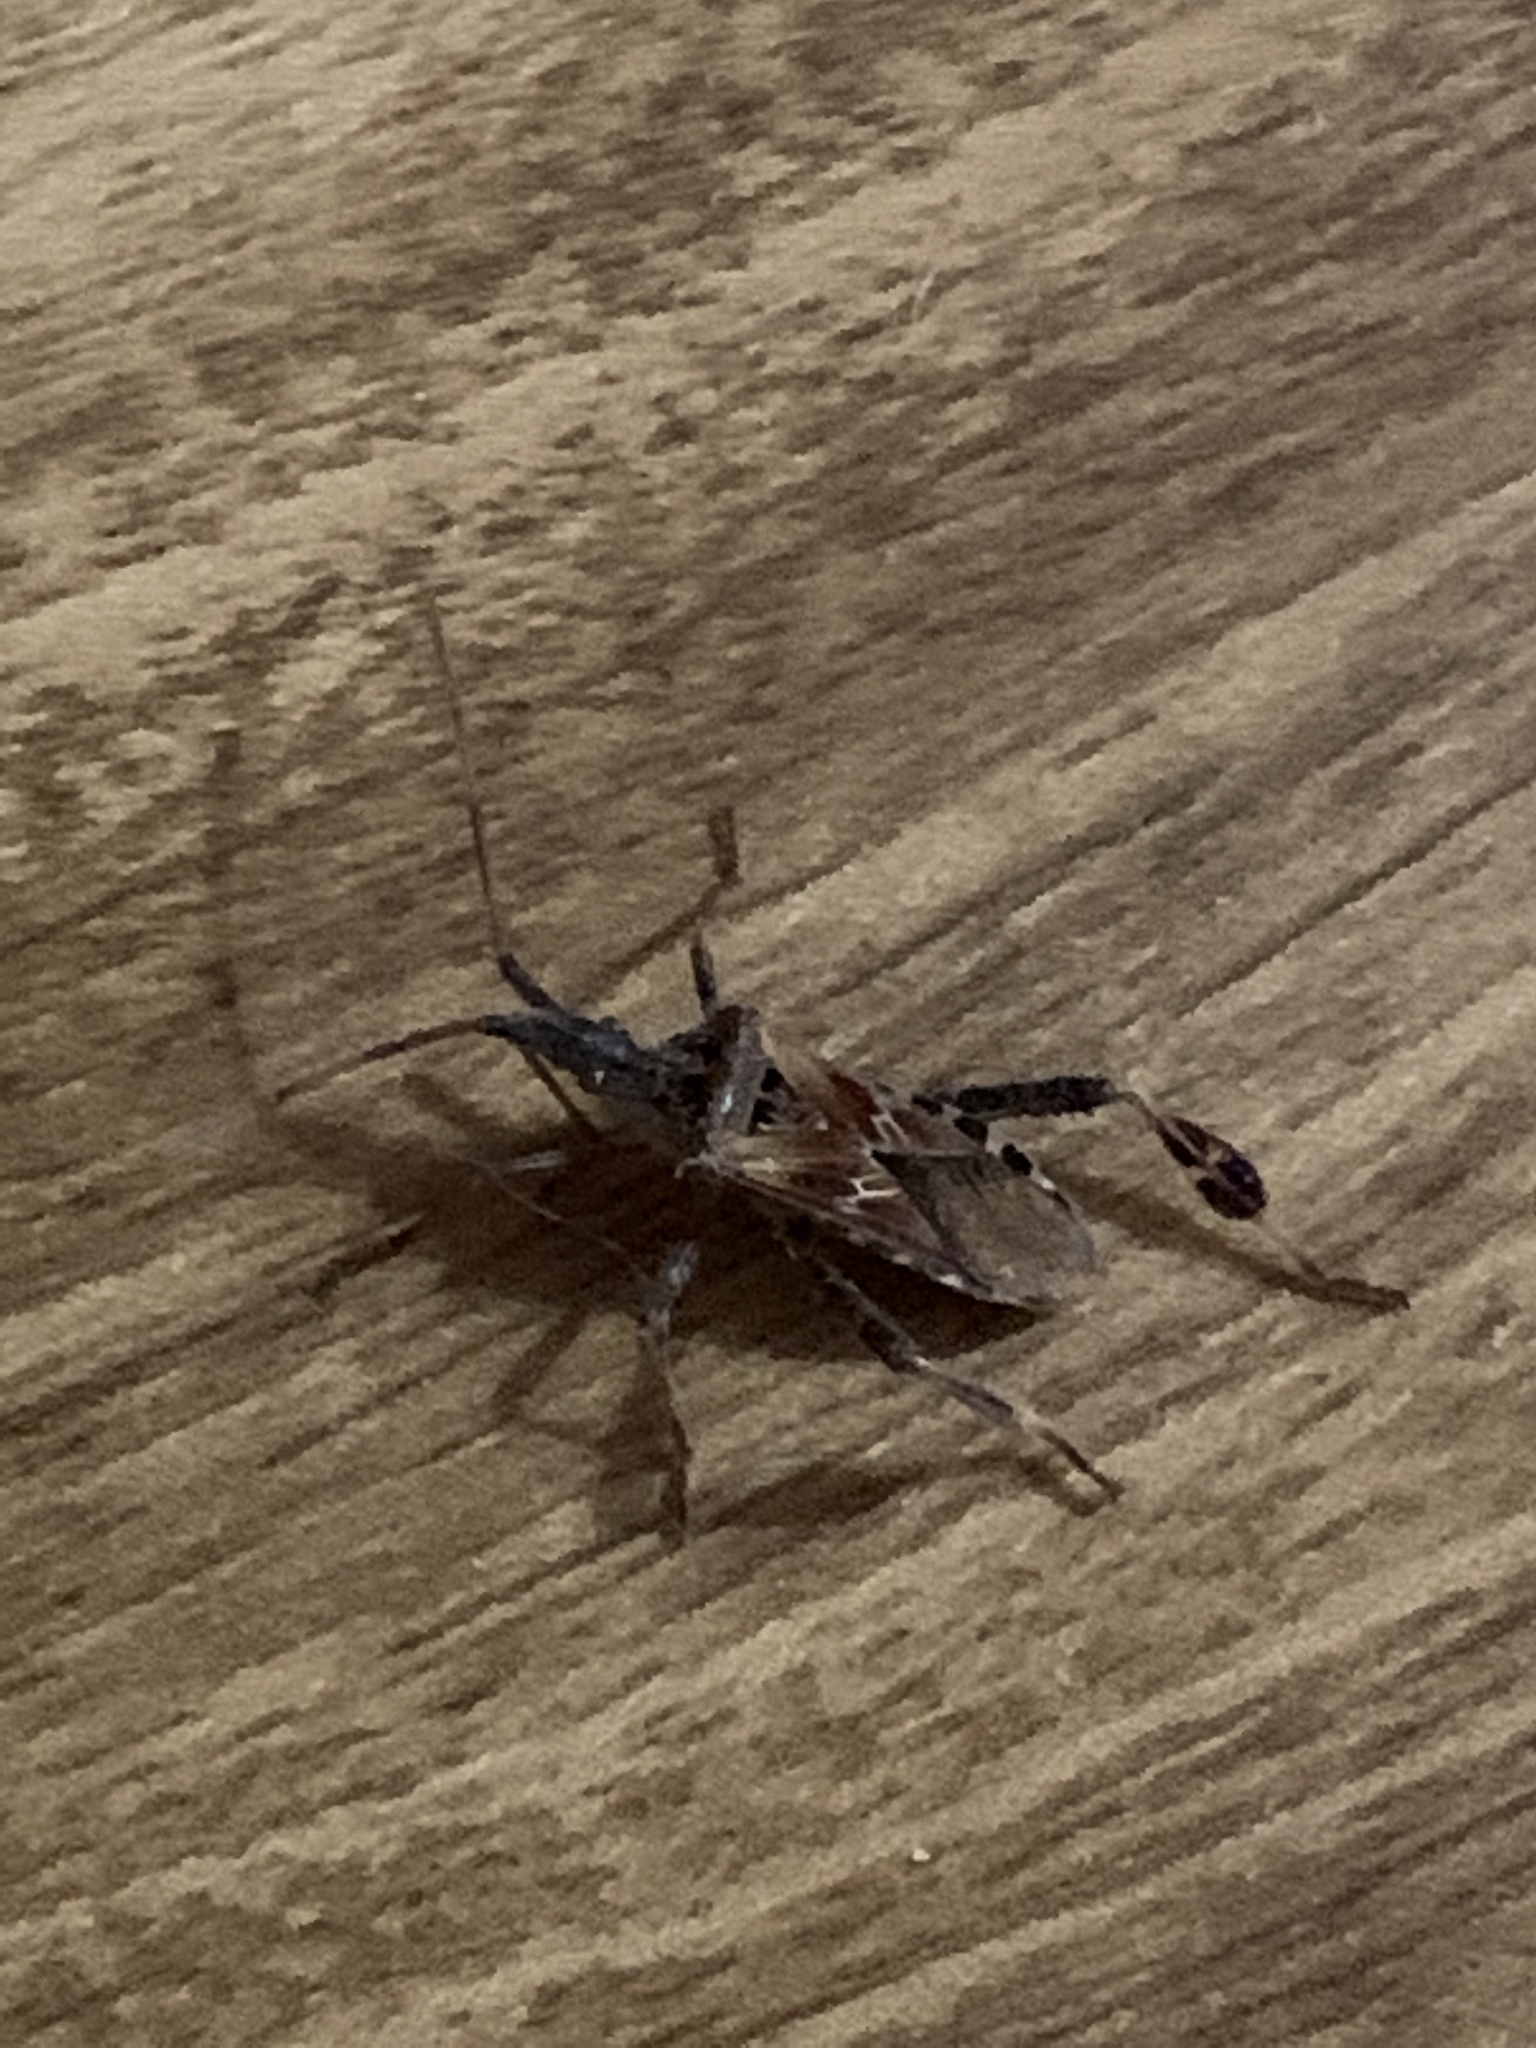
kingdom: Animalia
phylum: Arthropoda
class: Insecta
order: Hemiptera
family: Coreidae
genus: Leptoglossus
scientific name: Leptoglossus occidentalis
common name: Western conifer-seed bug
